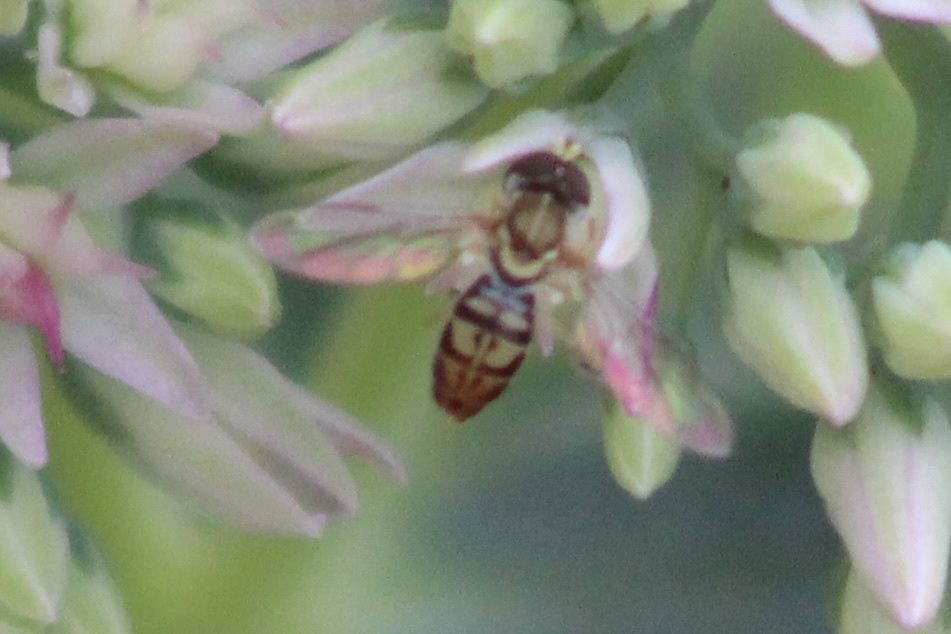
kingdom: Animalia
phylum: Arthropoda
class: Insecta
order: Diptera
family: Syrphidae
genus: Toxomerus
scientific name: Toxomerus marginatus
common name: Syrphid fly
